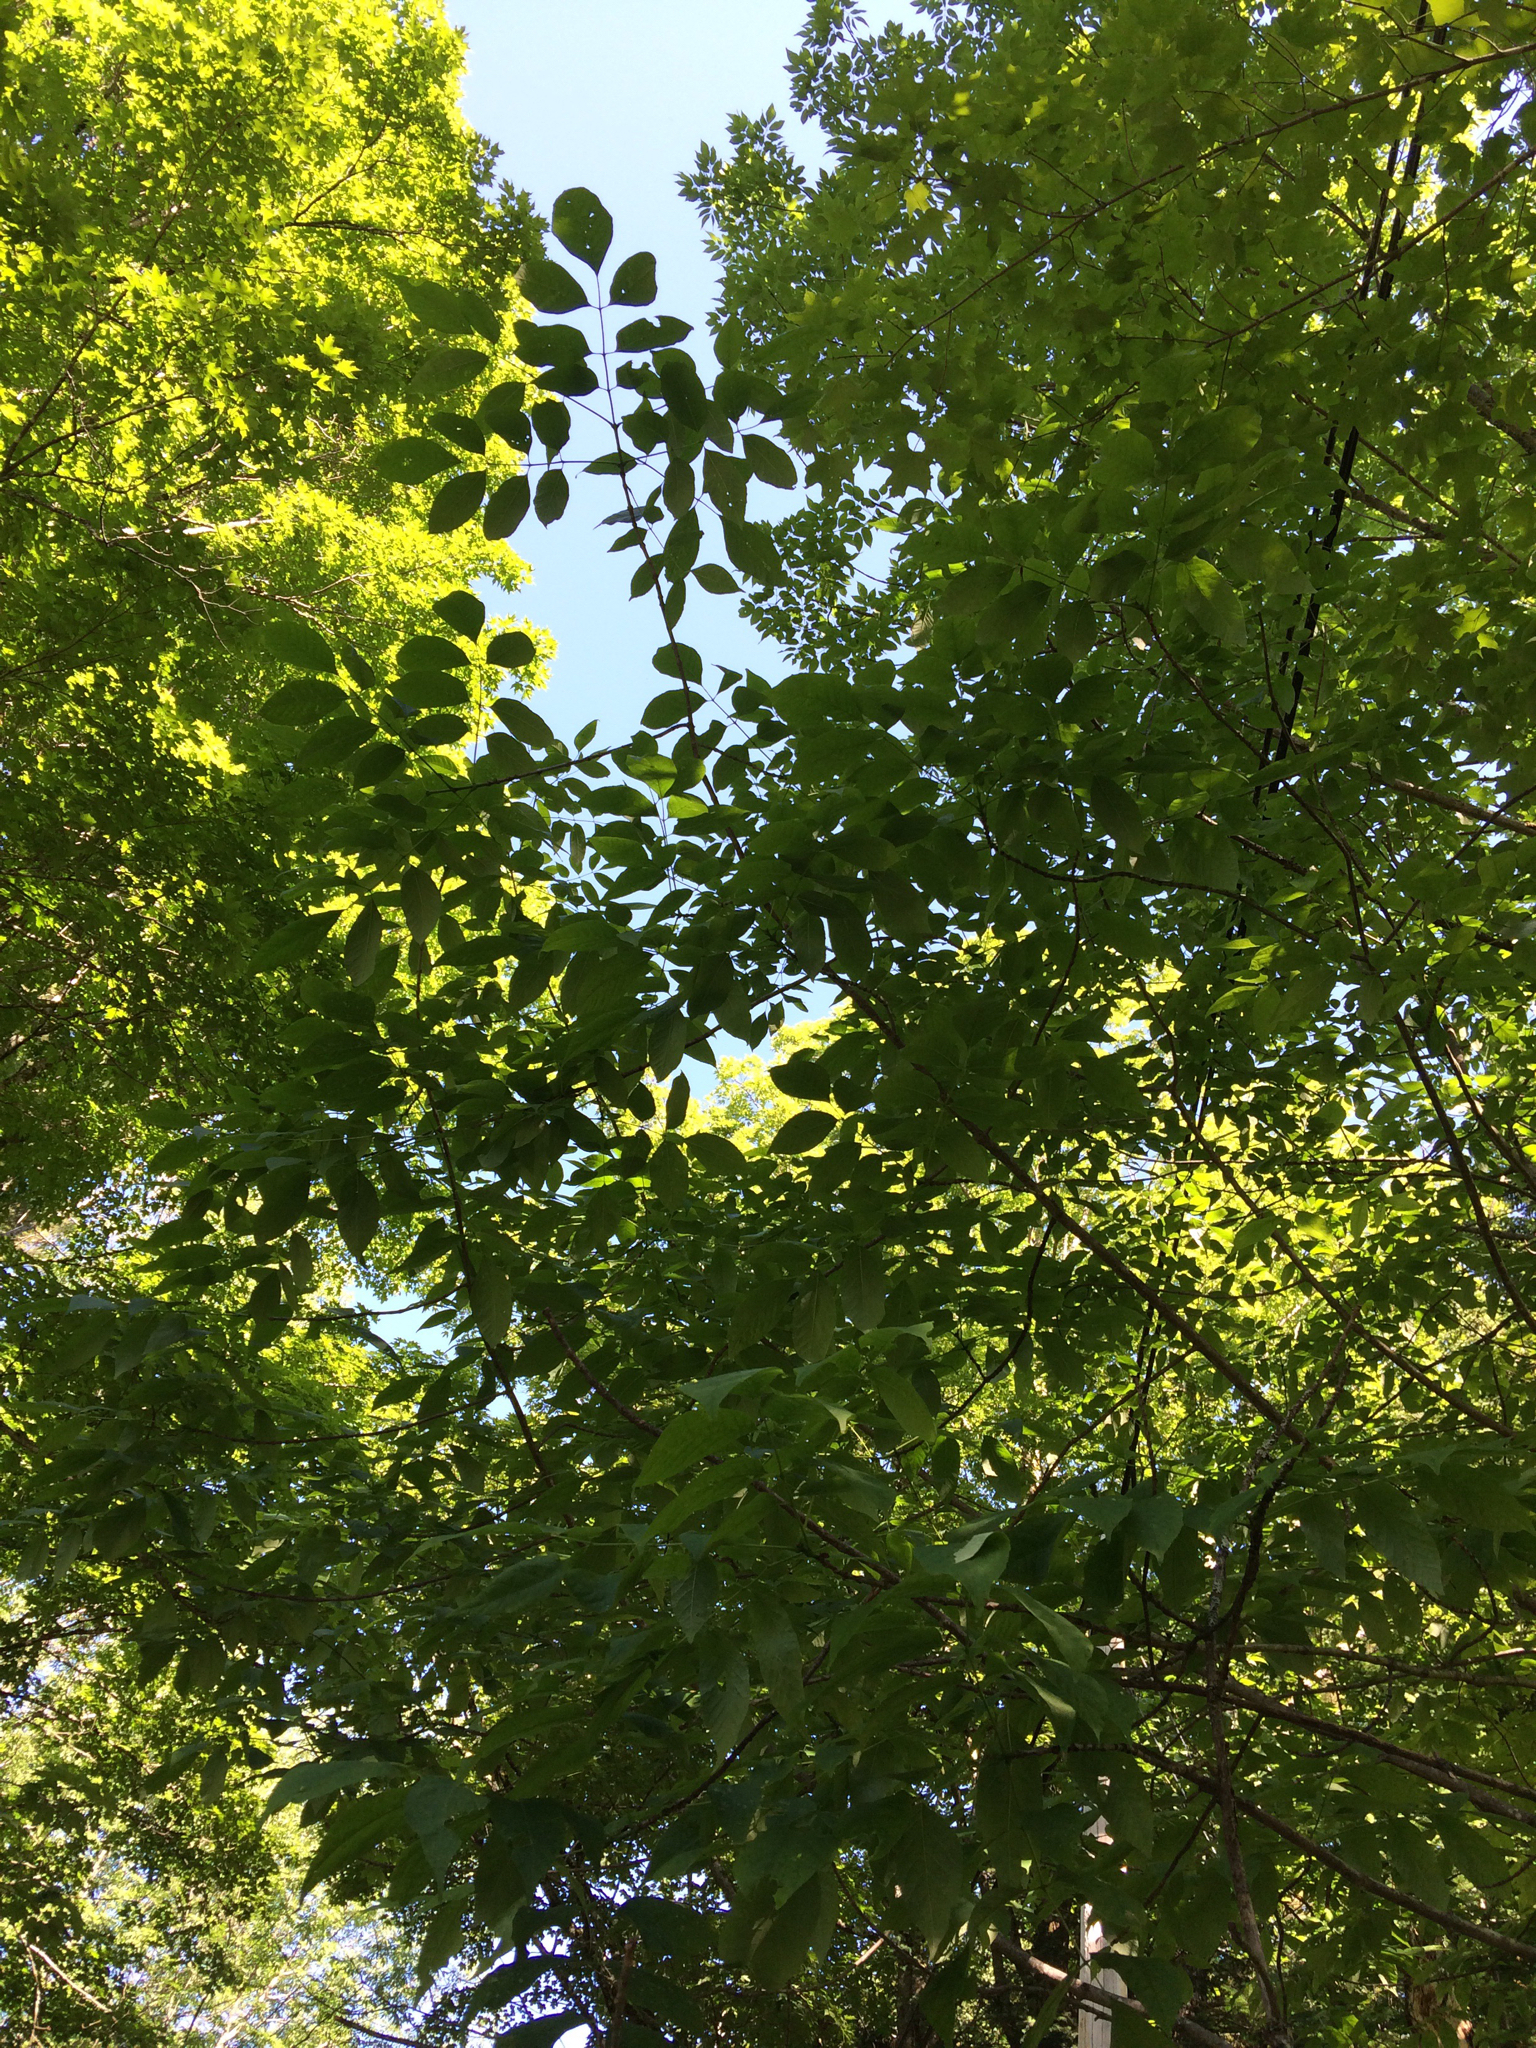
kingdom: Plantae
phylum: Tracheophyta
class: Magnoliopsida
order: Lamiales
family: Oleaceae
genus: Fraxinus
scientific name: Fraxinus americana
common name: White ash
